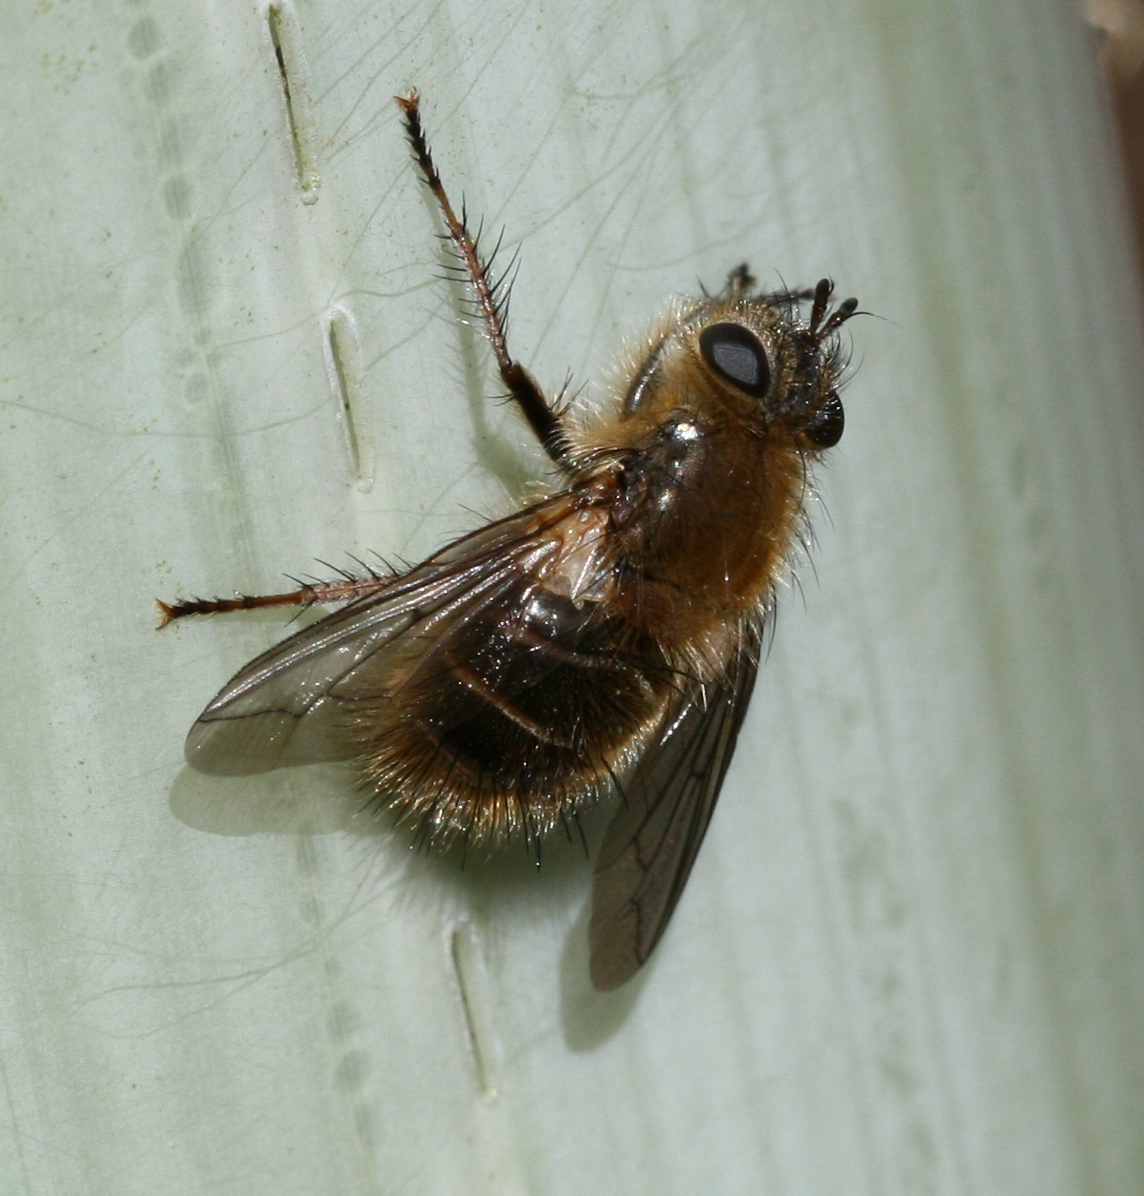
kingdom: Animalia
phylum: Arthropoda
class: Insecta
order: Diptera
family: Tachinidae
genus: Tachina
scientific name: Tachina ursina
